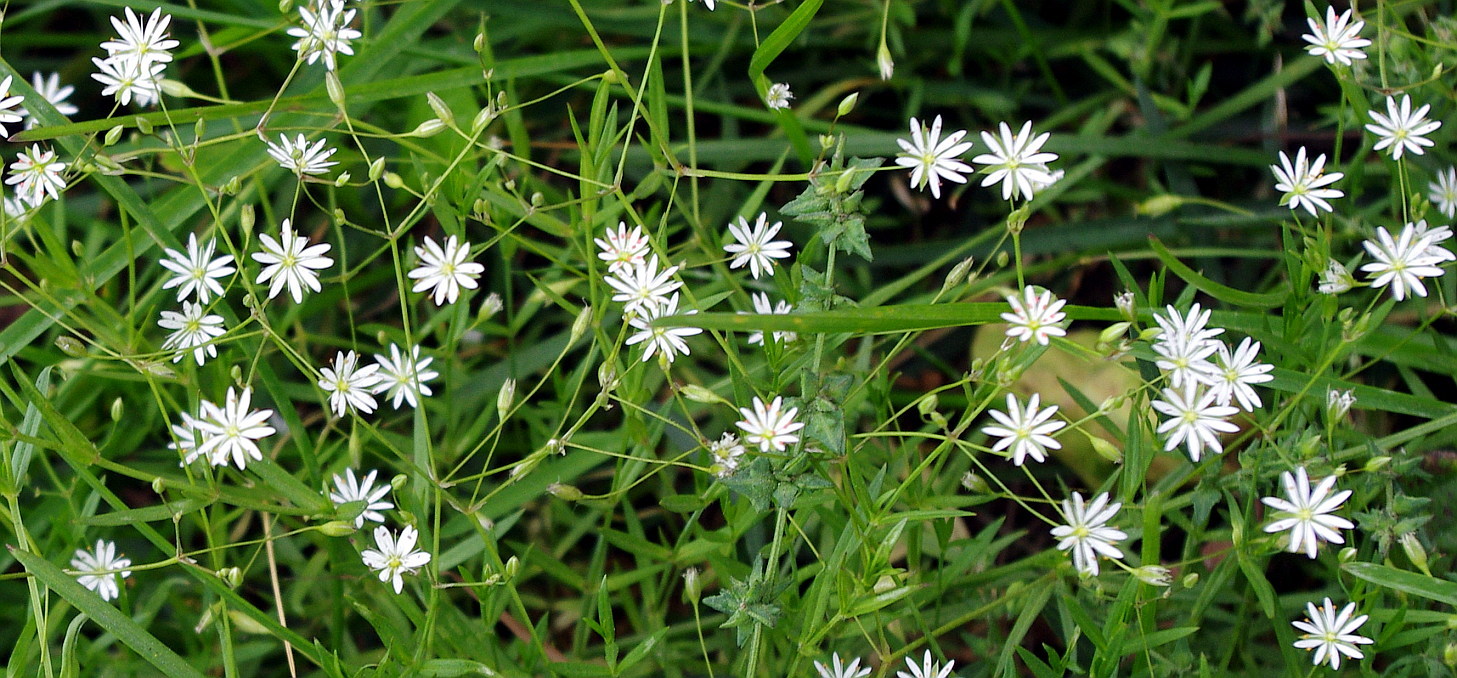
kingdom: Plantae
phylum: Tracheophyta
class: Magnoliopsida
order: Caryophyllales
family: Caryophyllaceae
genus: Stellaria
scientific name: Stellaria graminea
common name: Grass-like starwort
